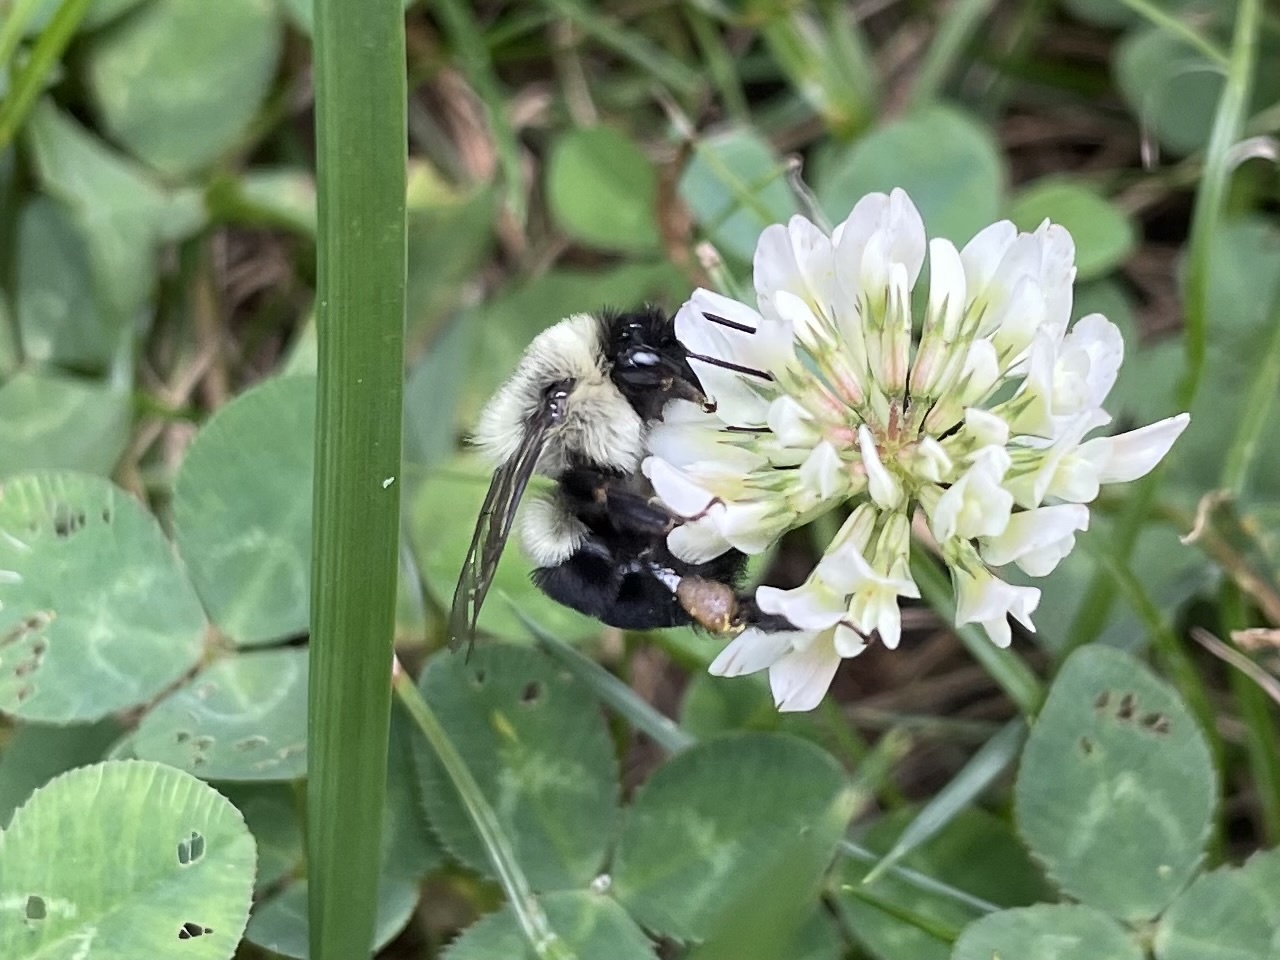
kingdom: Animalia
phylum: Arthropoda
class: Insecta
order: Hymenoptera
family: Apidae
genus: Bombus
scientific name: Bombus impatiens
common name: Common eastern bumble bee
